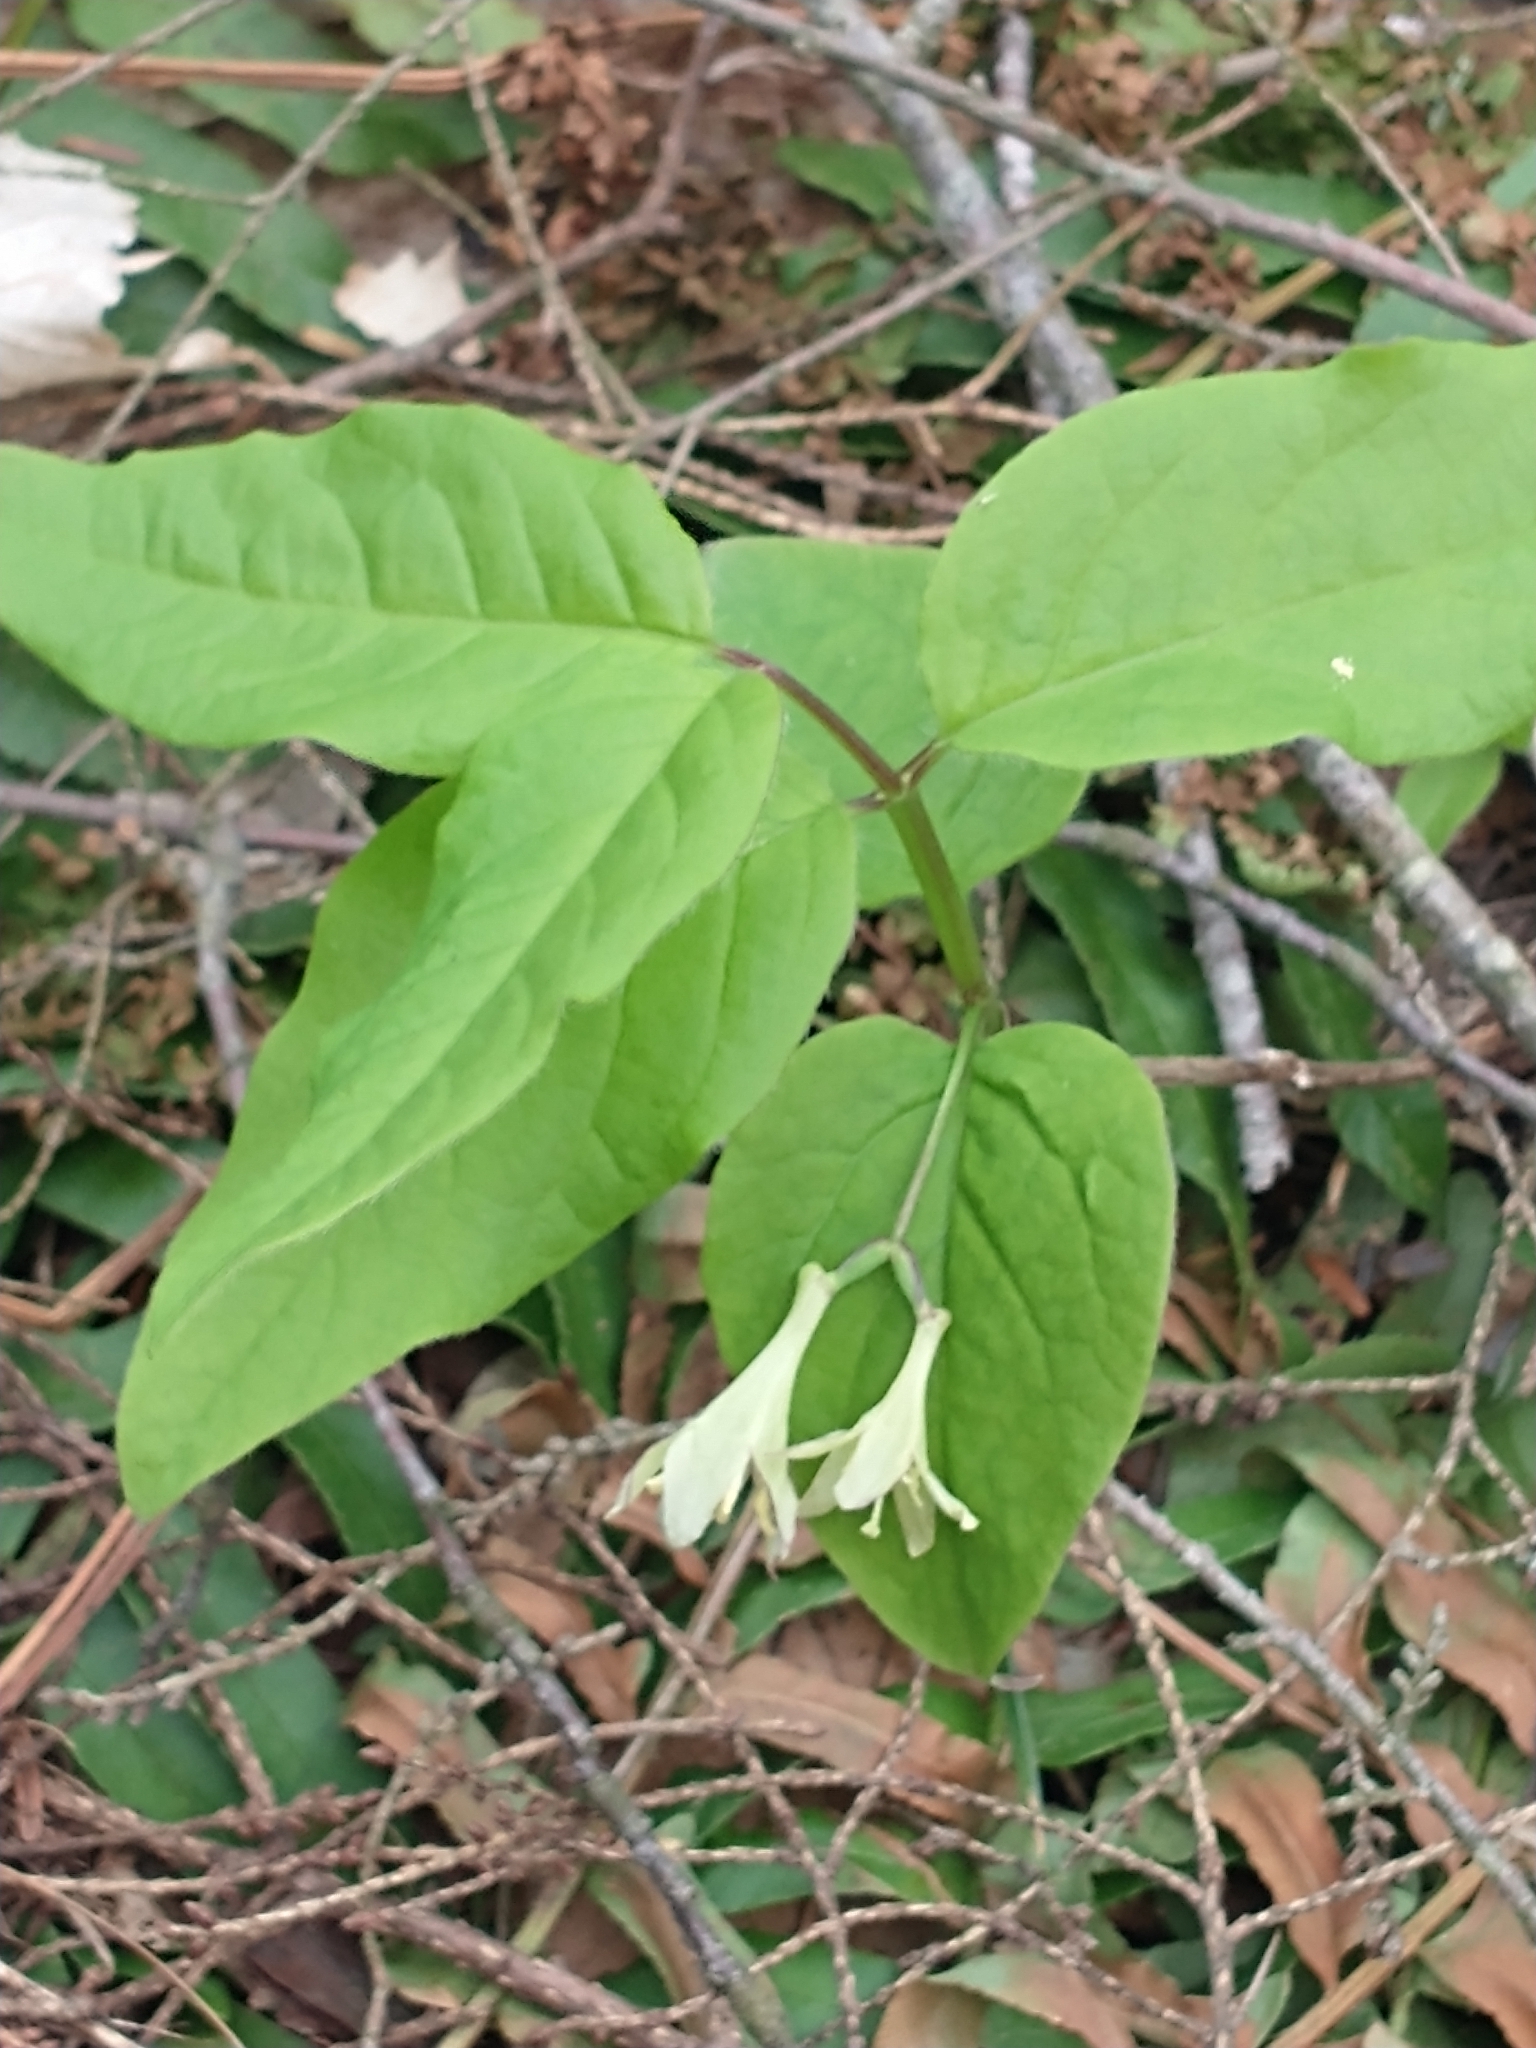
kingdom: Plantae
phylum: Tracheophyta
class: Magnoliopsida
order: Dipsacales
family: Caprifoliaceae
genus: Lonicera
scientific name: Lonicera canadensis
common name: American fly-honeysuckle
